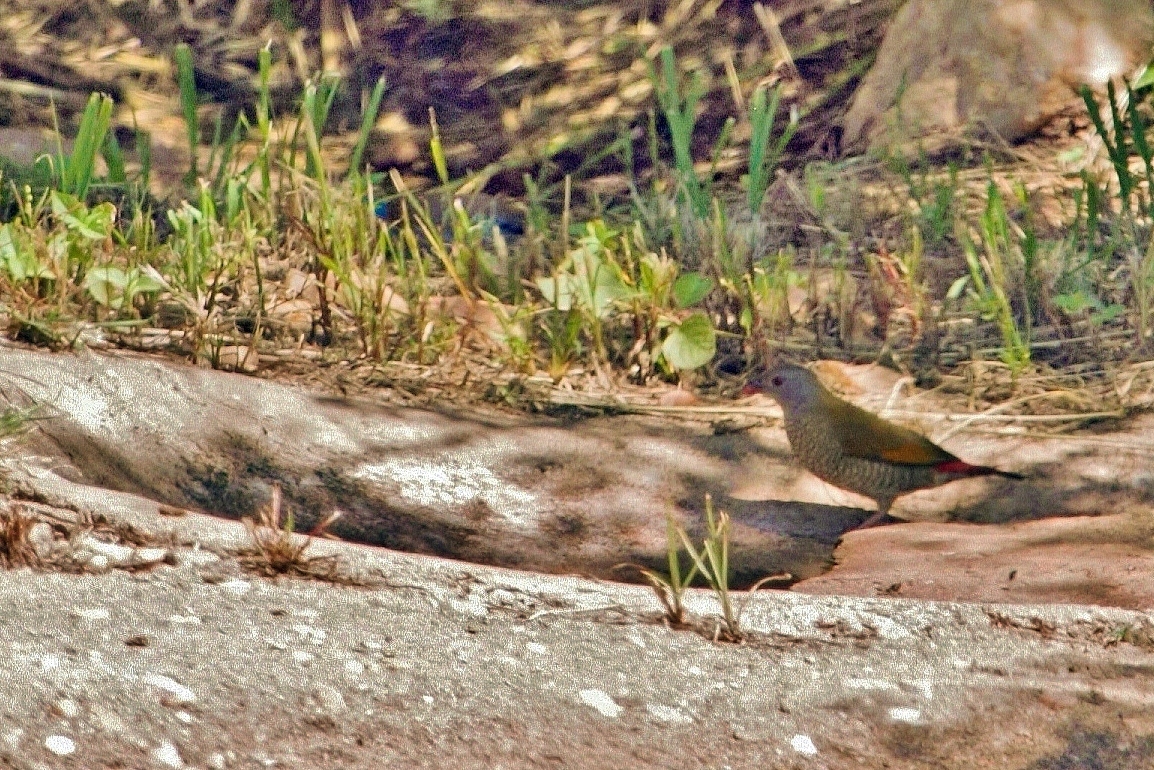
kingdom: Animalia
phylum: Chordata
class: Aves
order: Passeriformes
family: Estrildidae
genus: Pytilia
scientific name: Pytilia afra
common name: Orange-winged pytilia
